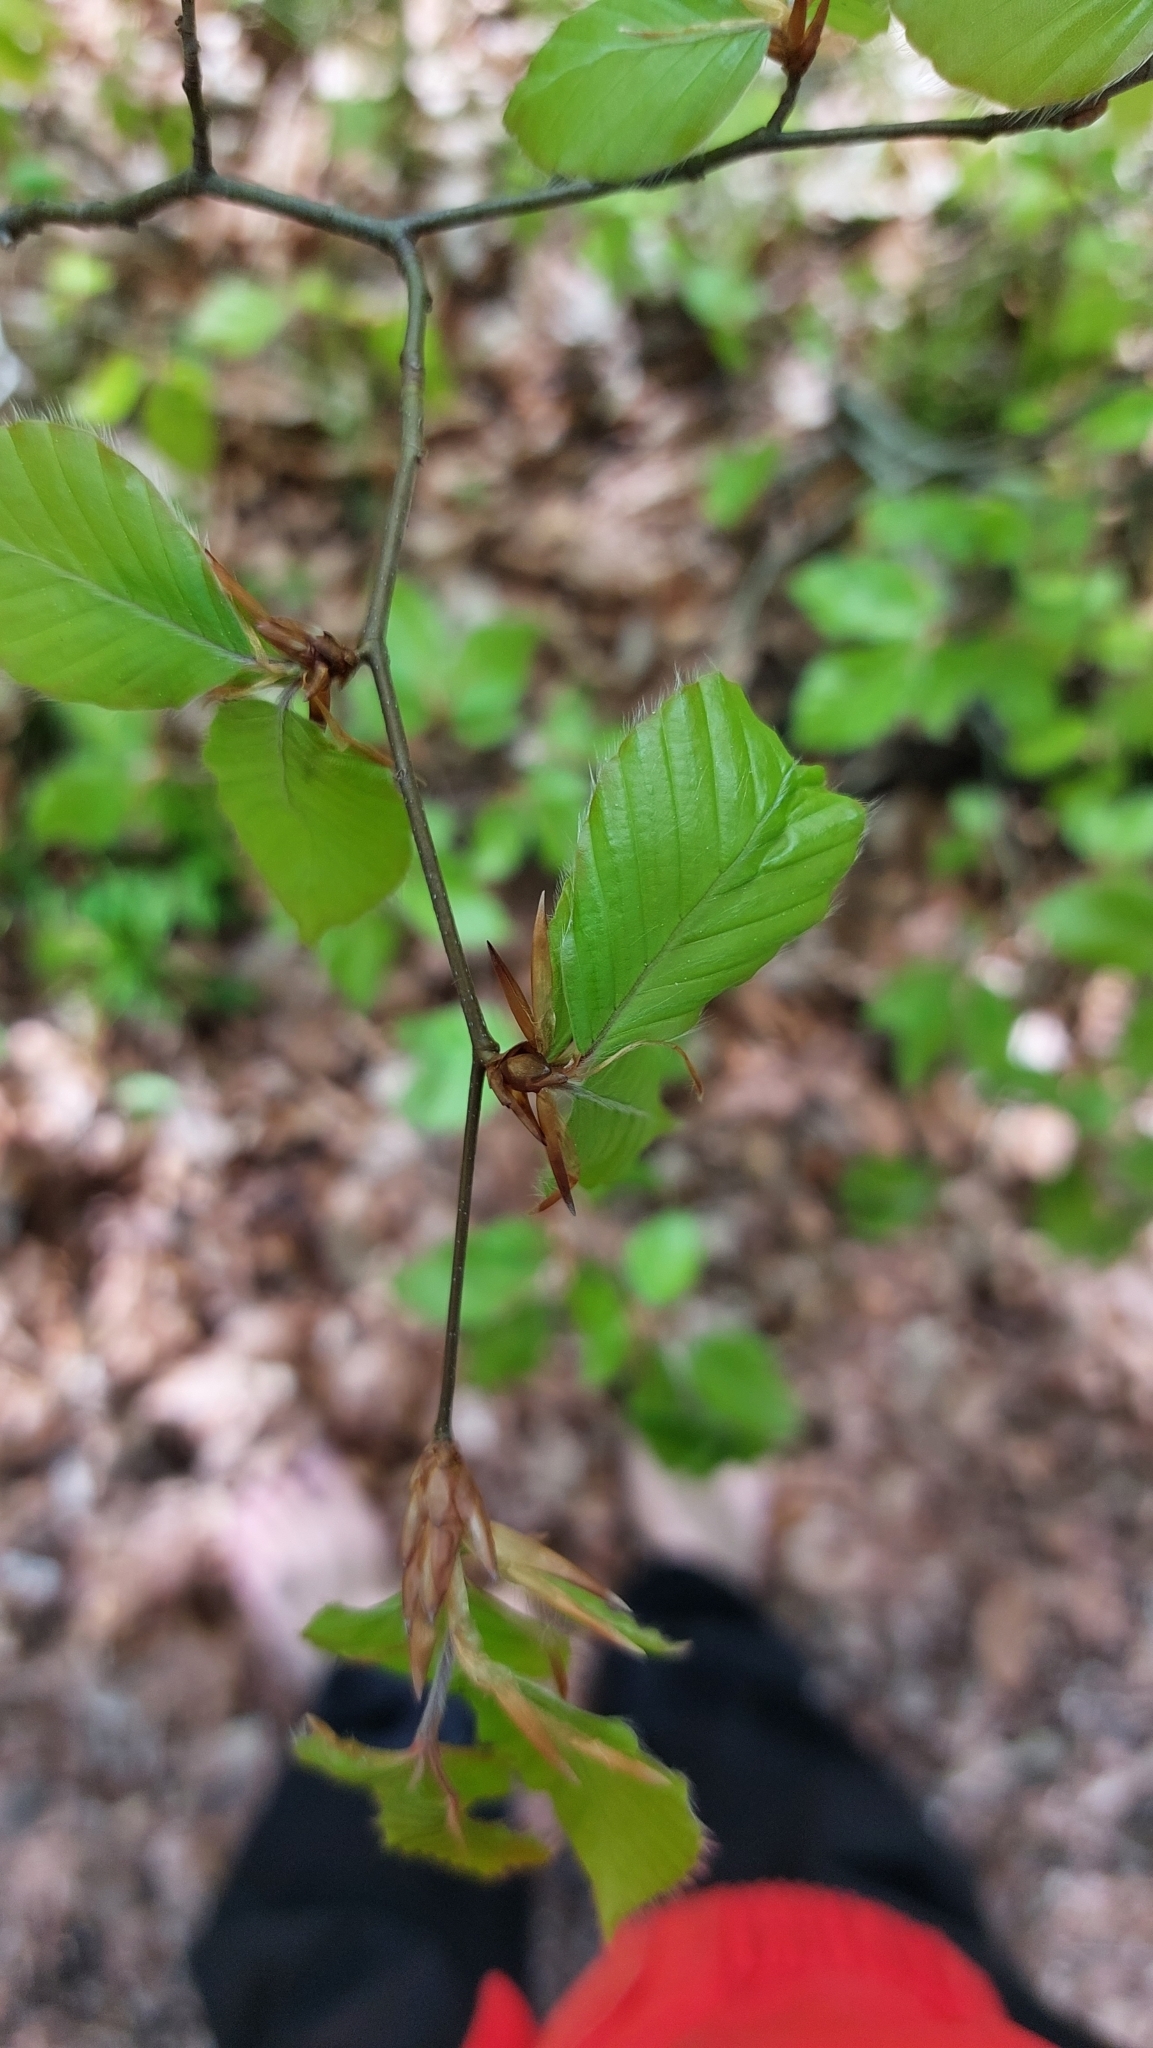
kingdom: Plantae
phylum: Tracheophyta
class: Magnoliopsida
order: Fagales
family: Fagaceae
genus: Fagus
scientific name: Fagus sylvatica
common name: Beech
